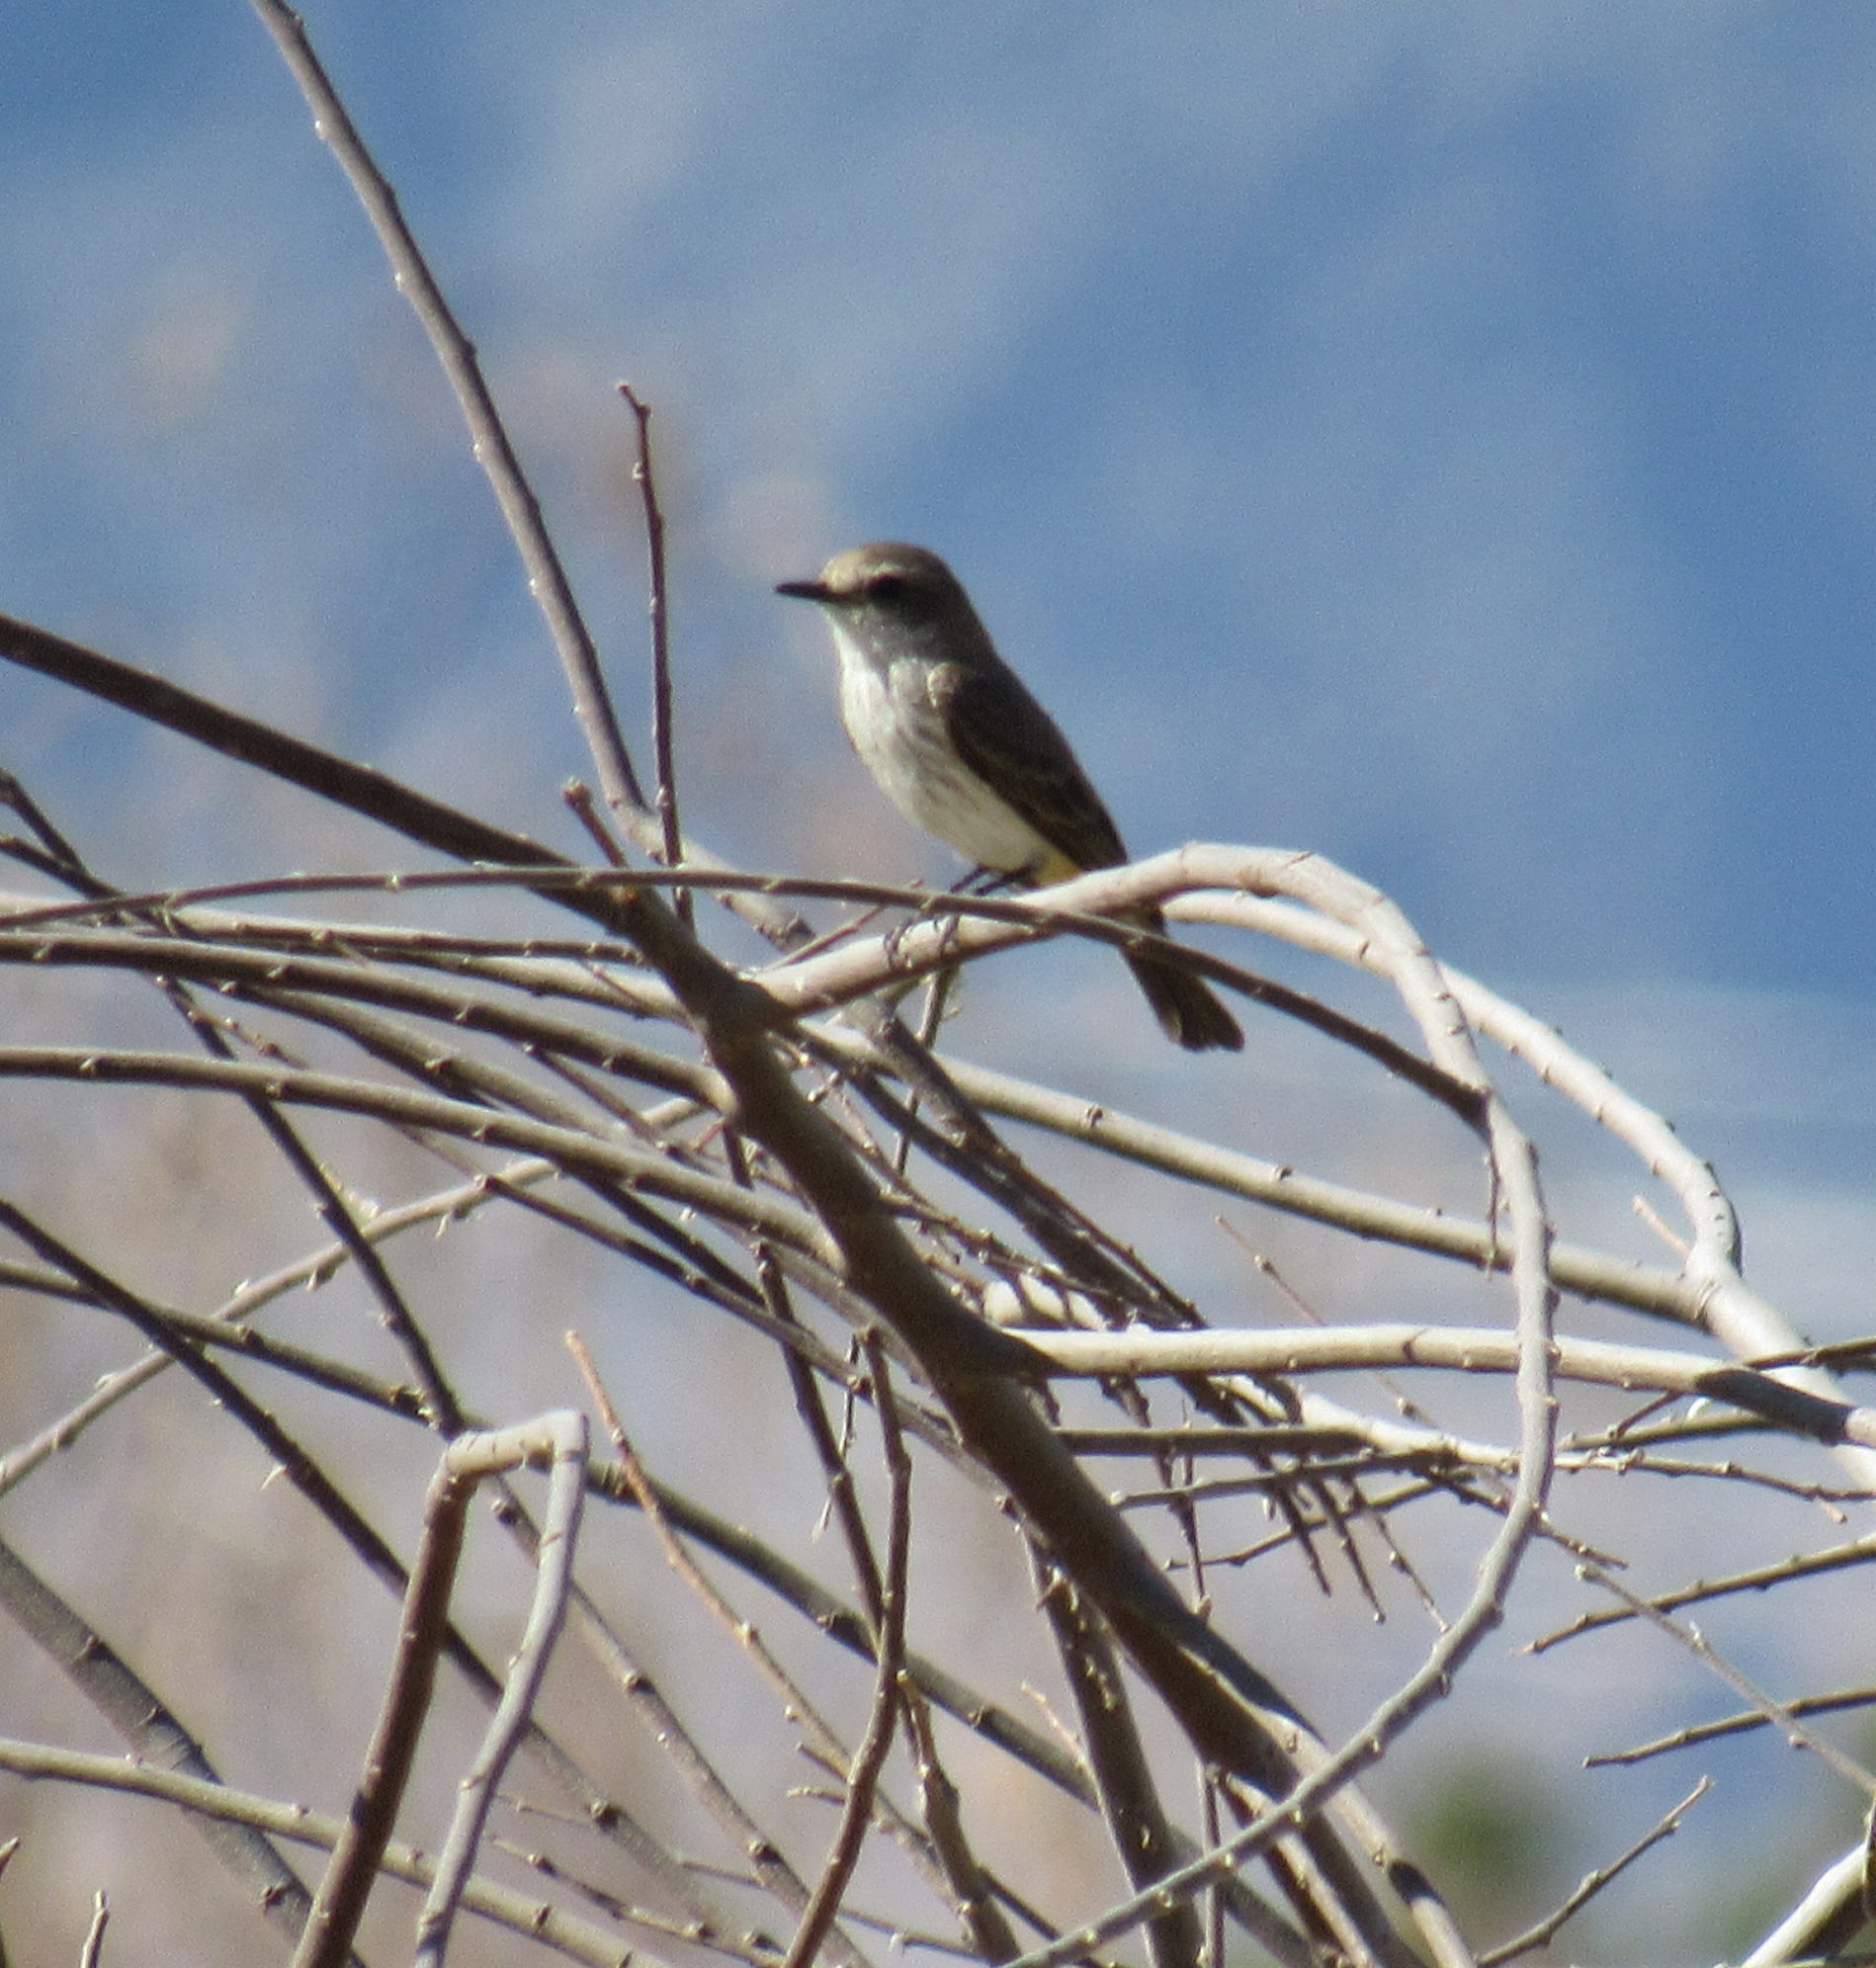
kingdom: Animalia
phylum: Chordata
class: Aves
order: Passeriformes
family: Tyrannidae
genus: Pyrocephalus
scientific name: Pyrocephalus rubinus
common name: Vermilion flycatcher
